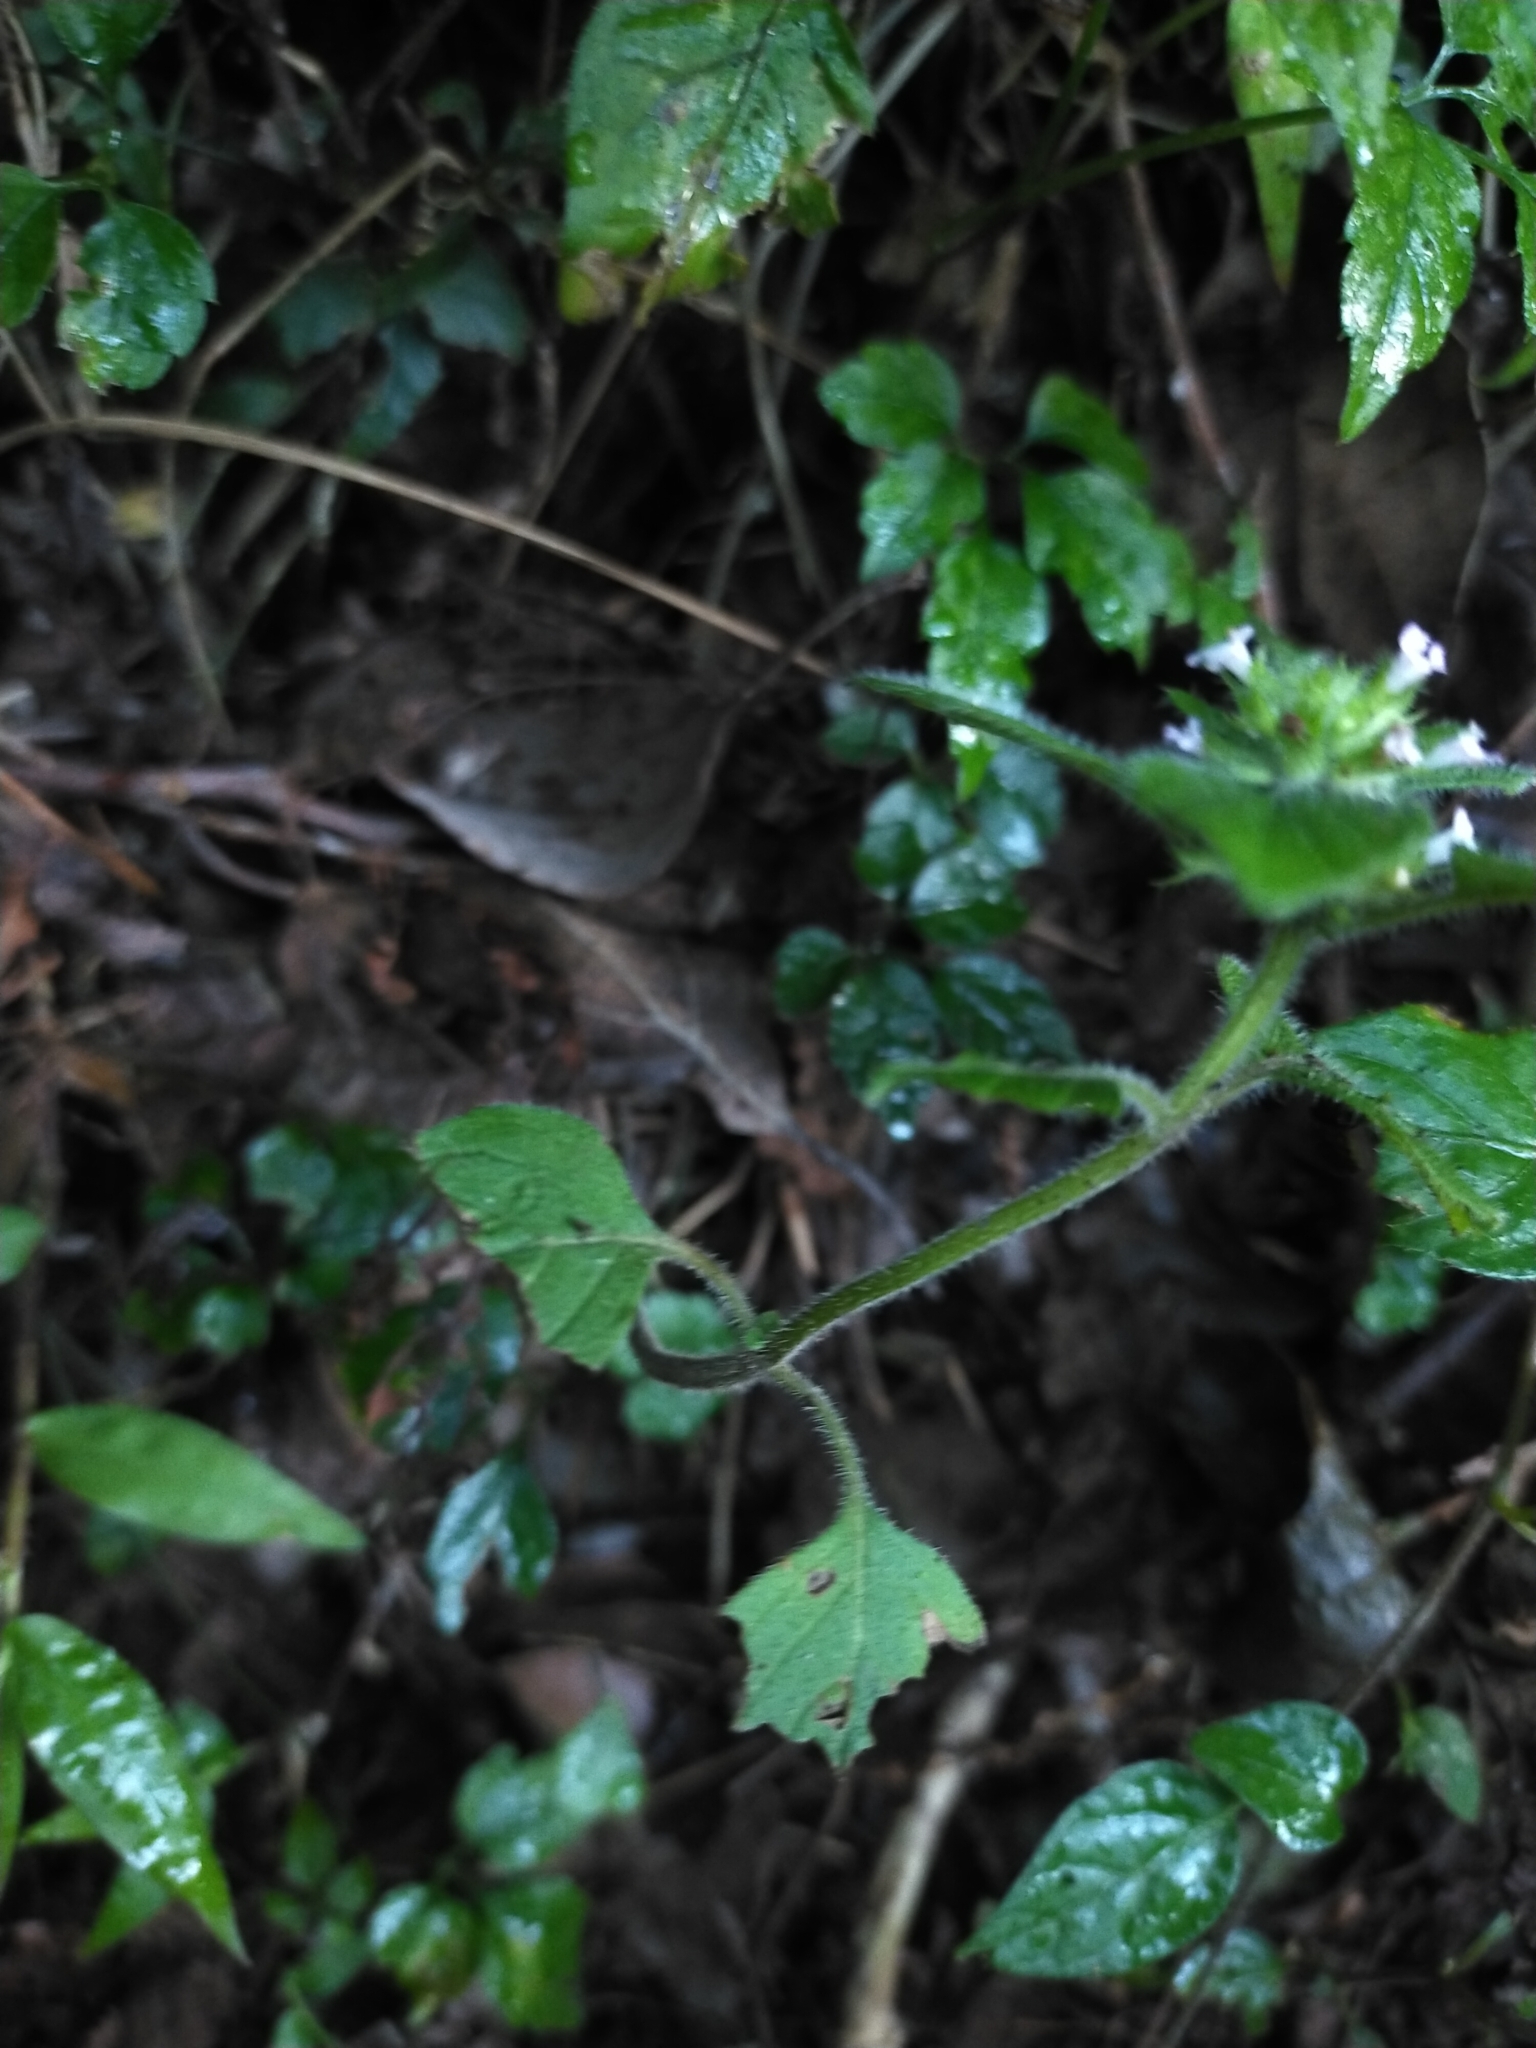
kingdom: Plantae
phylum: Tracheophyta
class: Magnoliopsida
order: Lamiales
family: Lamiaceae
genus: Clinopodium
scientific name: Clinopodium chinense
